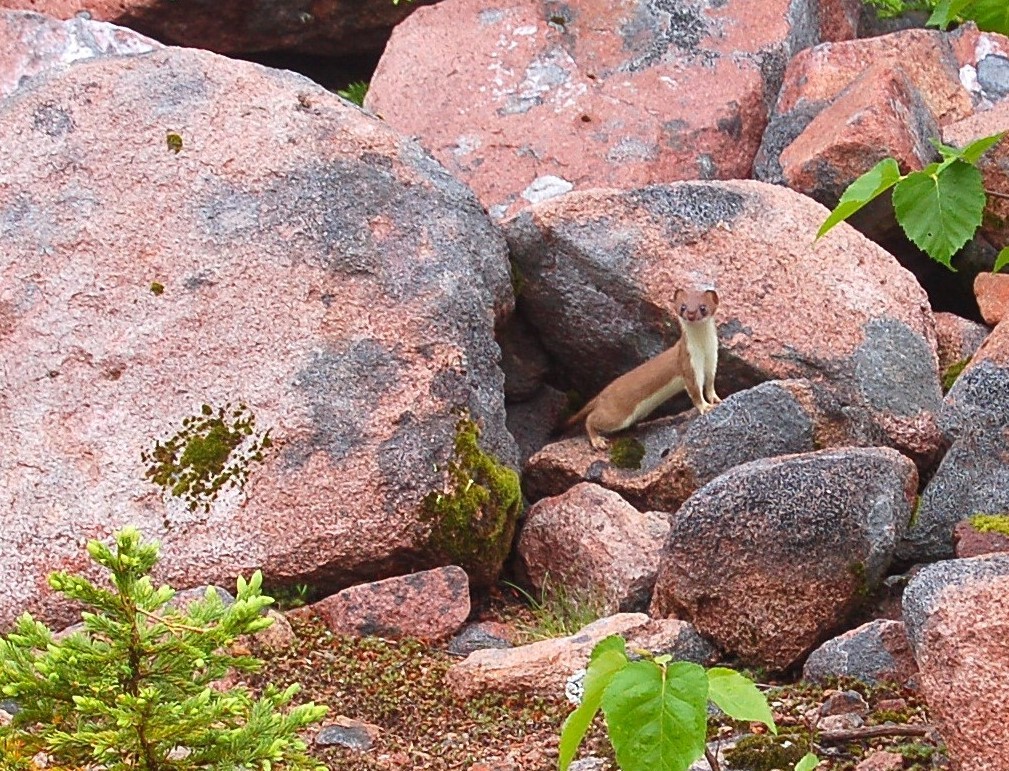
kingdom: Animalia
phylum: Chordata
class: Mammalia
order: Carnivora
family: Mustelidae
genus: Mustela
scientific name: Mustela erminea
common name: Stoat
